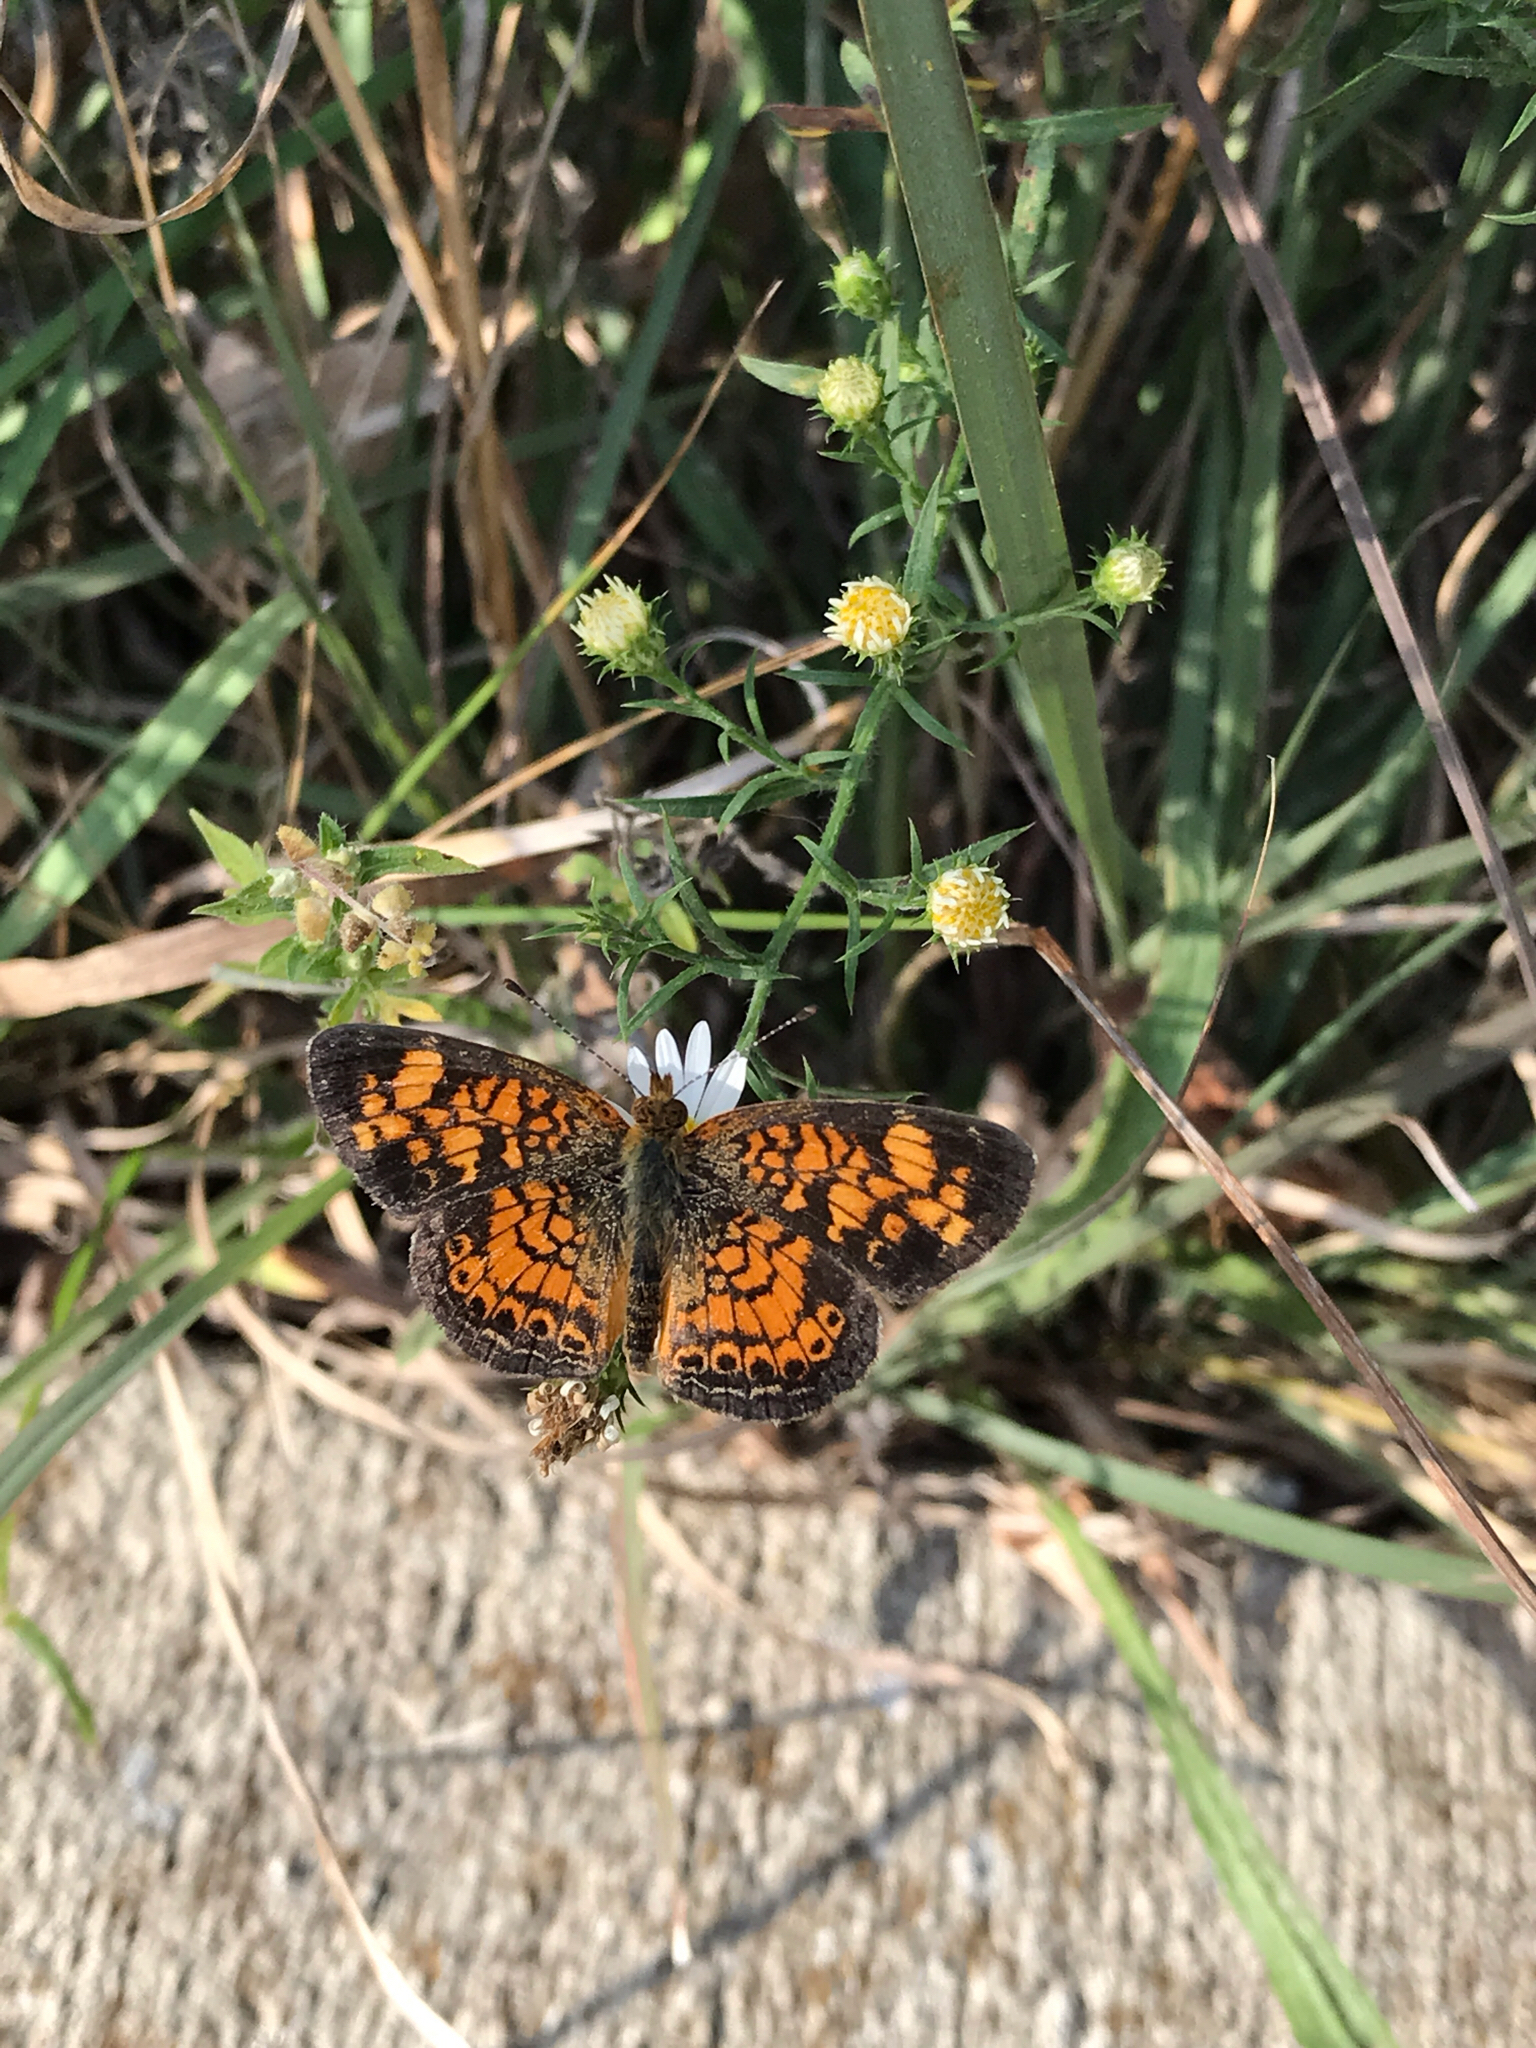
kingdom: Animalia
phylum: Arthropoda
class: Insecta
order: Lepidoptera
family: Nymphalidae
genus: Phyciodes
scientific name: Phyciodes tharos
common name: Pearl crescent
